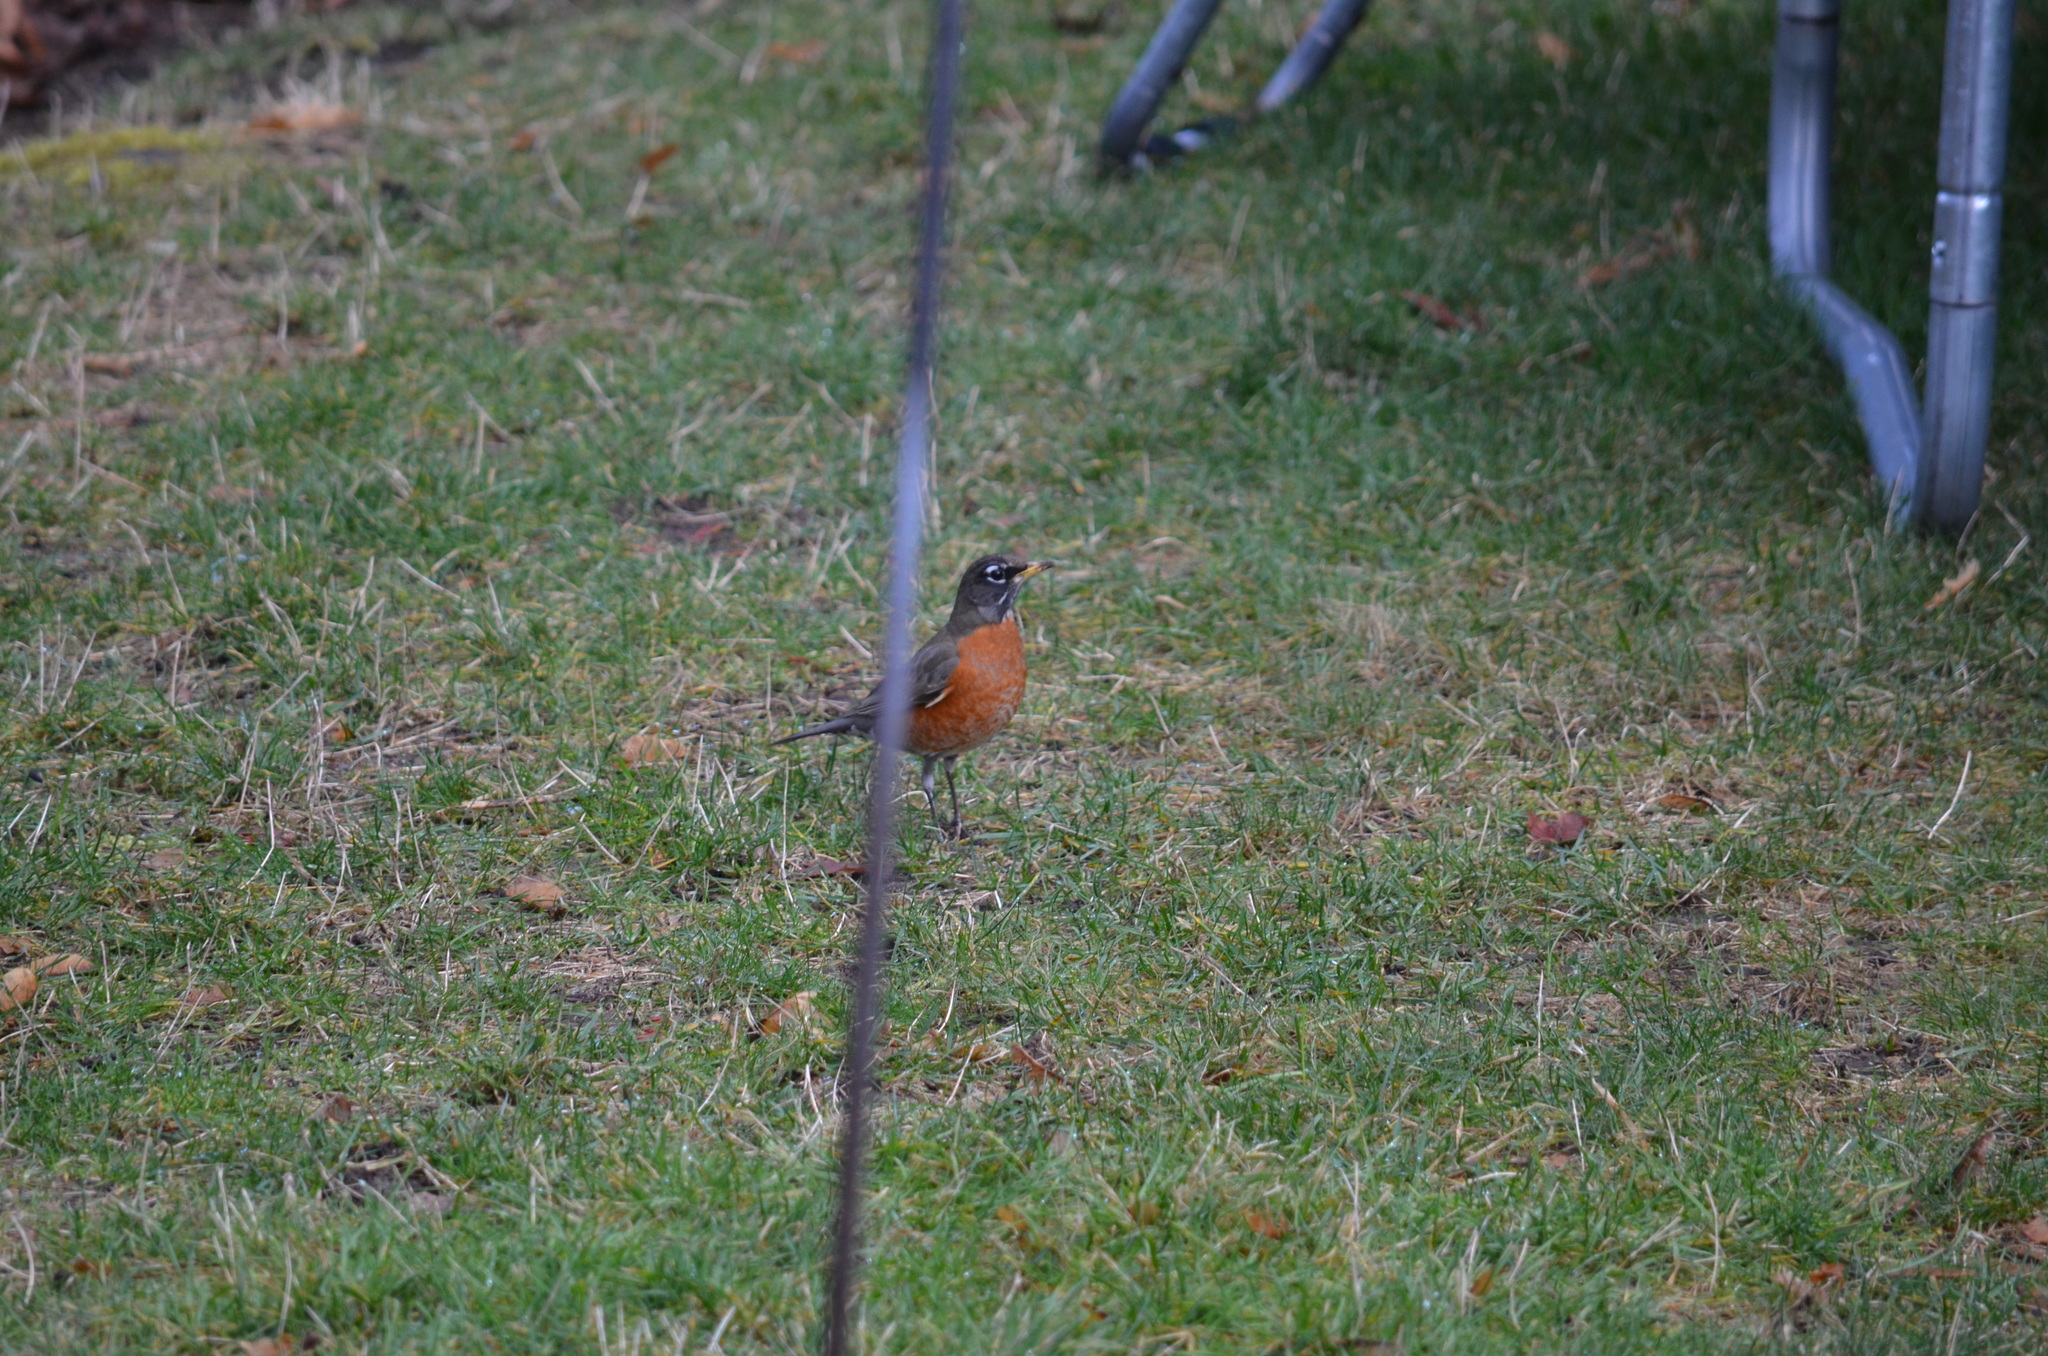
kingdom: Animalia
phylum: Chordata
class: Aves
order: Passeriformes
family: Turdidae
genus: Turdus
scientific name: Turdus migratorius
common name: American robin
